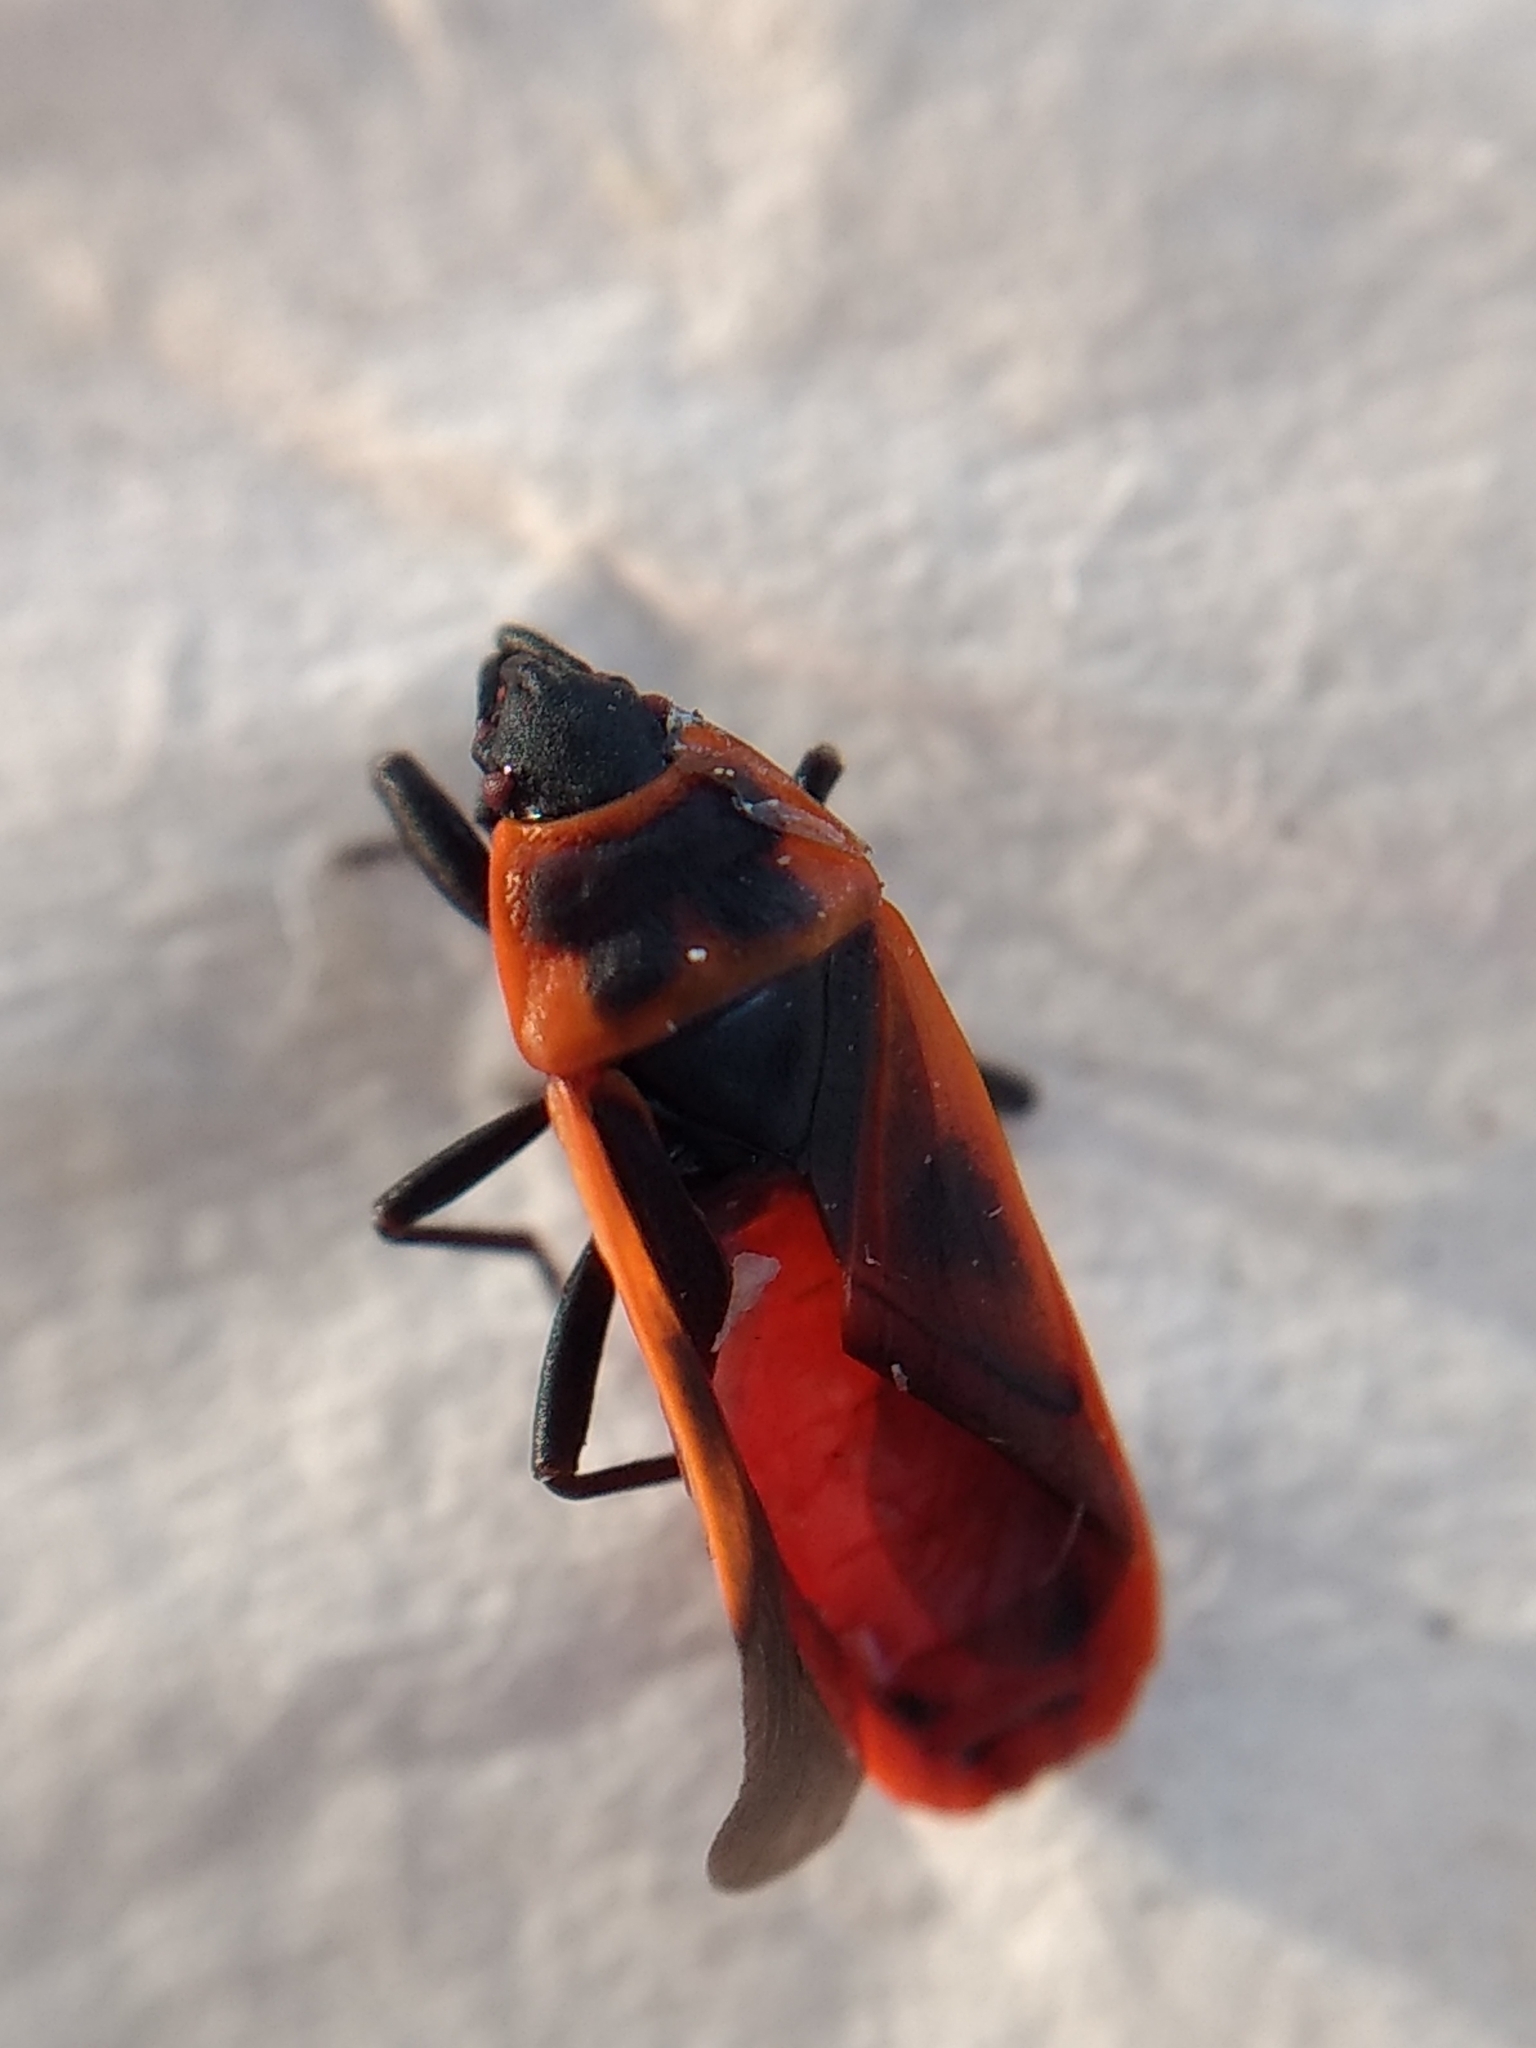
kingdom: Animalia
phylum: Arthropoda
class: Insecta
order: Hemiptera
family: Pyrrhocoridae
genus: Scantius
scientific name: Scantius aegyptius
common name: Red bug
